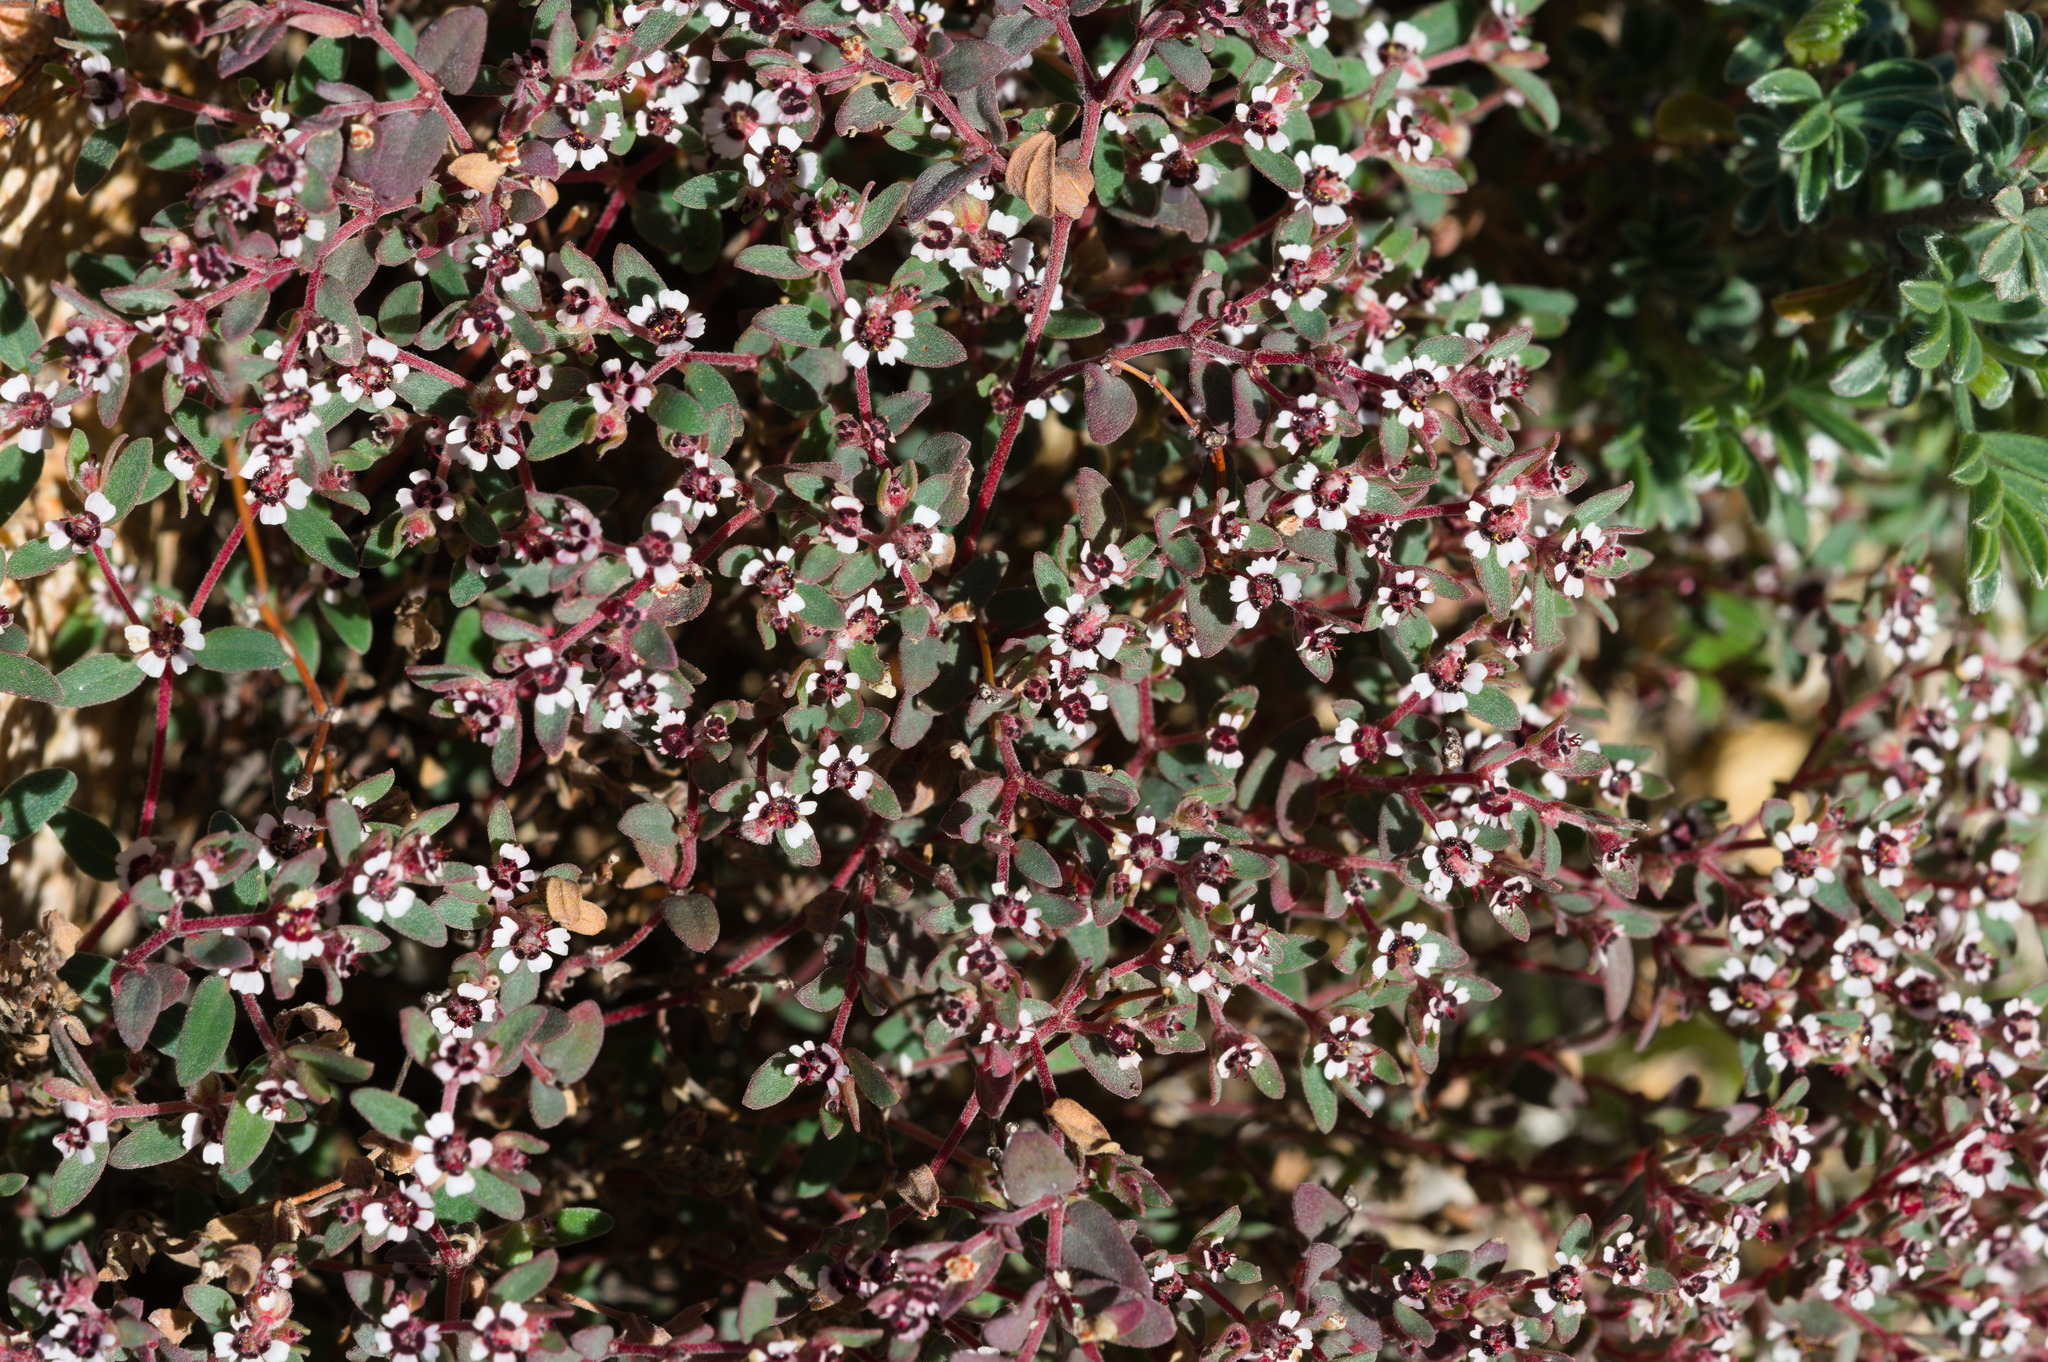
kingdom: Plantae
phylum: Tracheophyta
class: Magnoliopsida
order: Malpighiales
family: Euphorbiaceae
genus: Euphorbia
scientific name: Euphorbia melanadenia
